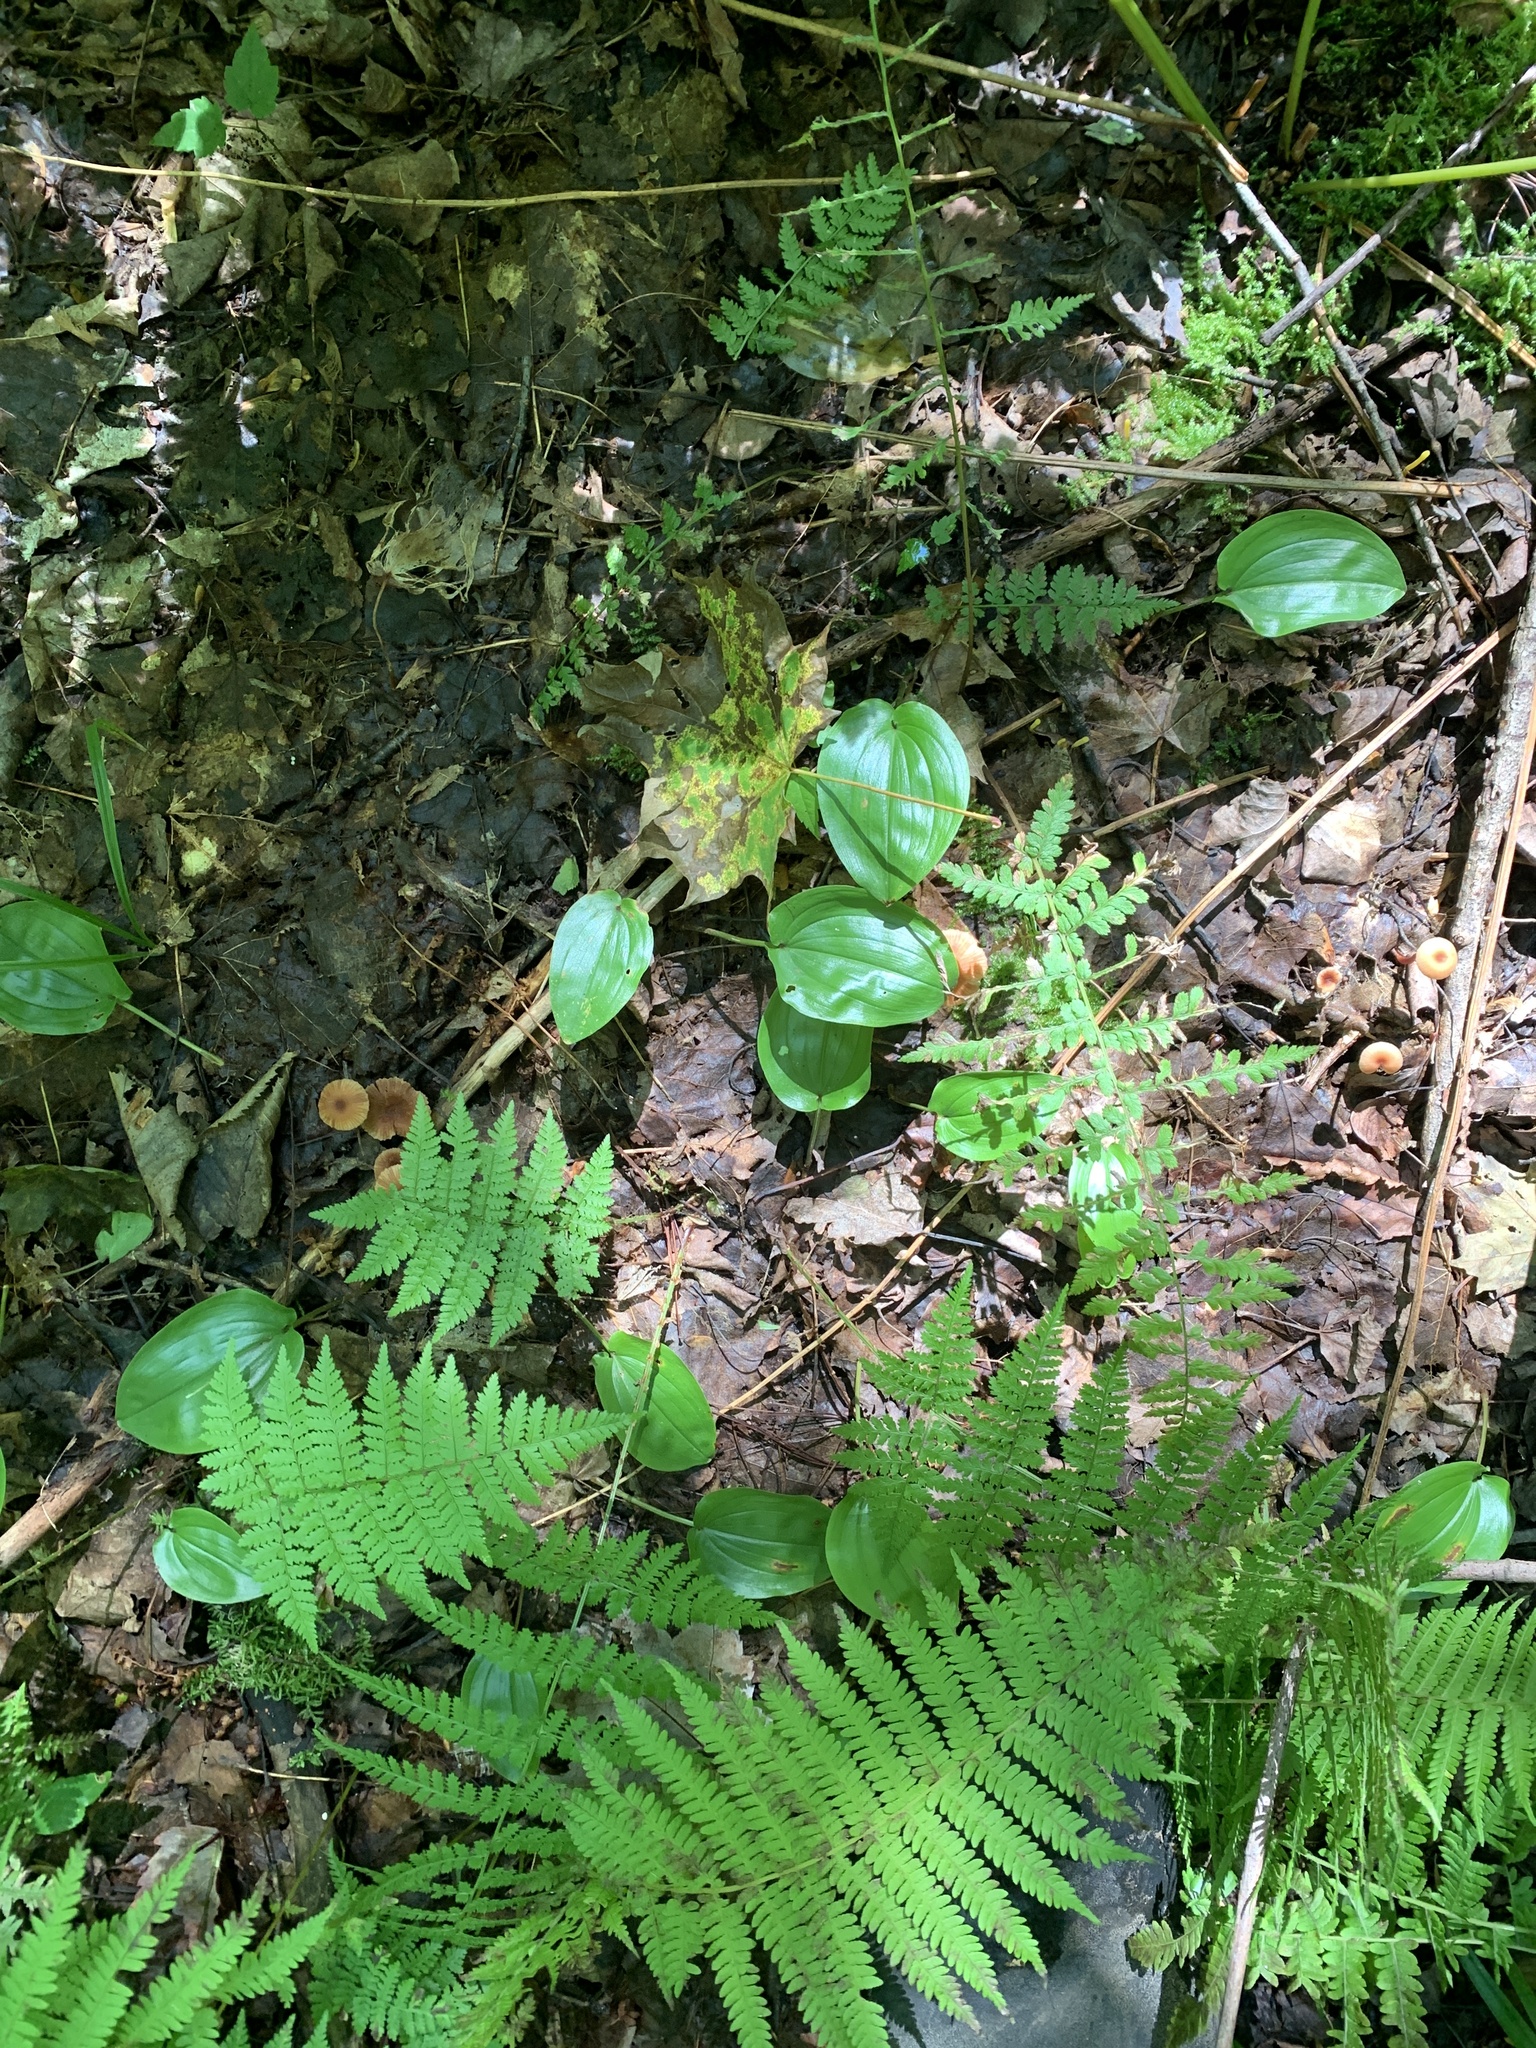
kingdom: Plantae
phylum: Tracheophyta
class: Liliopsida
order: Asparagales
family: Asparagaceae
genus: Maianthemum
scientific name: Maianthemum canadense
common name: False lily-of-the-valley
